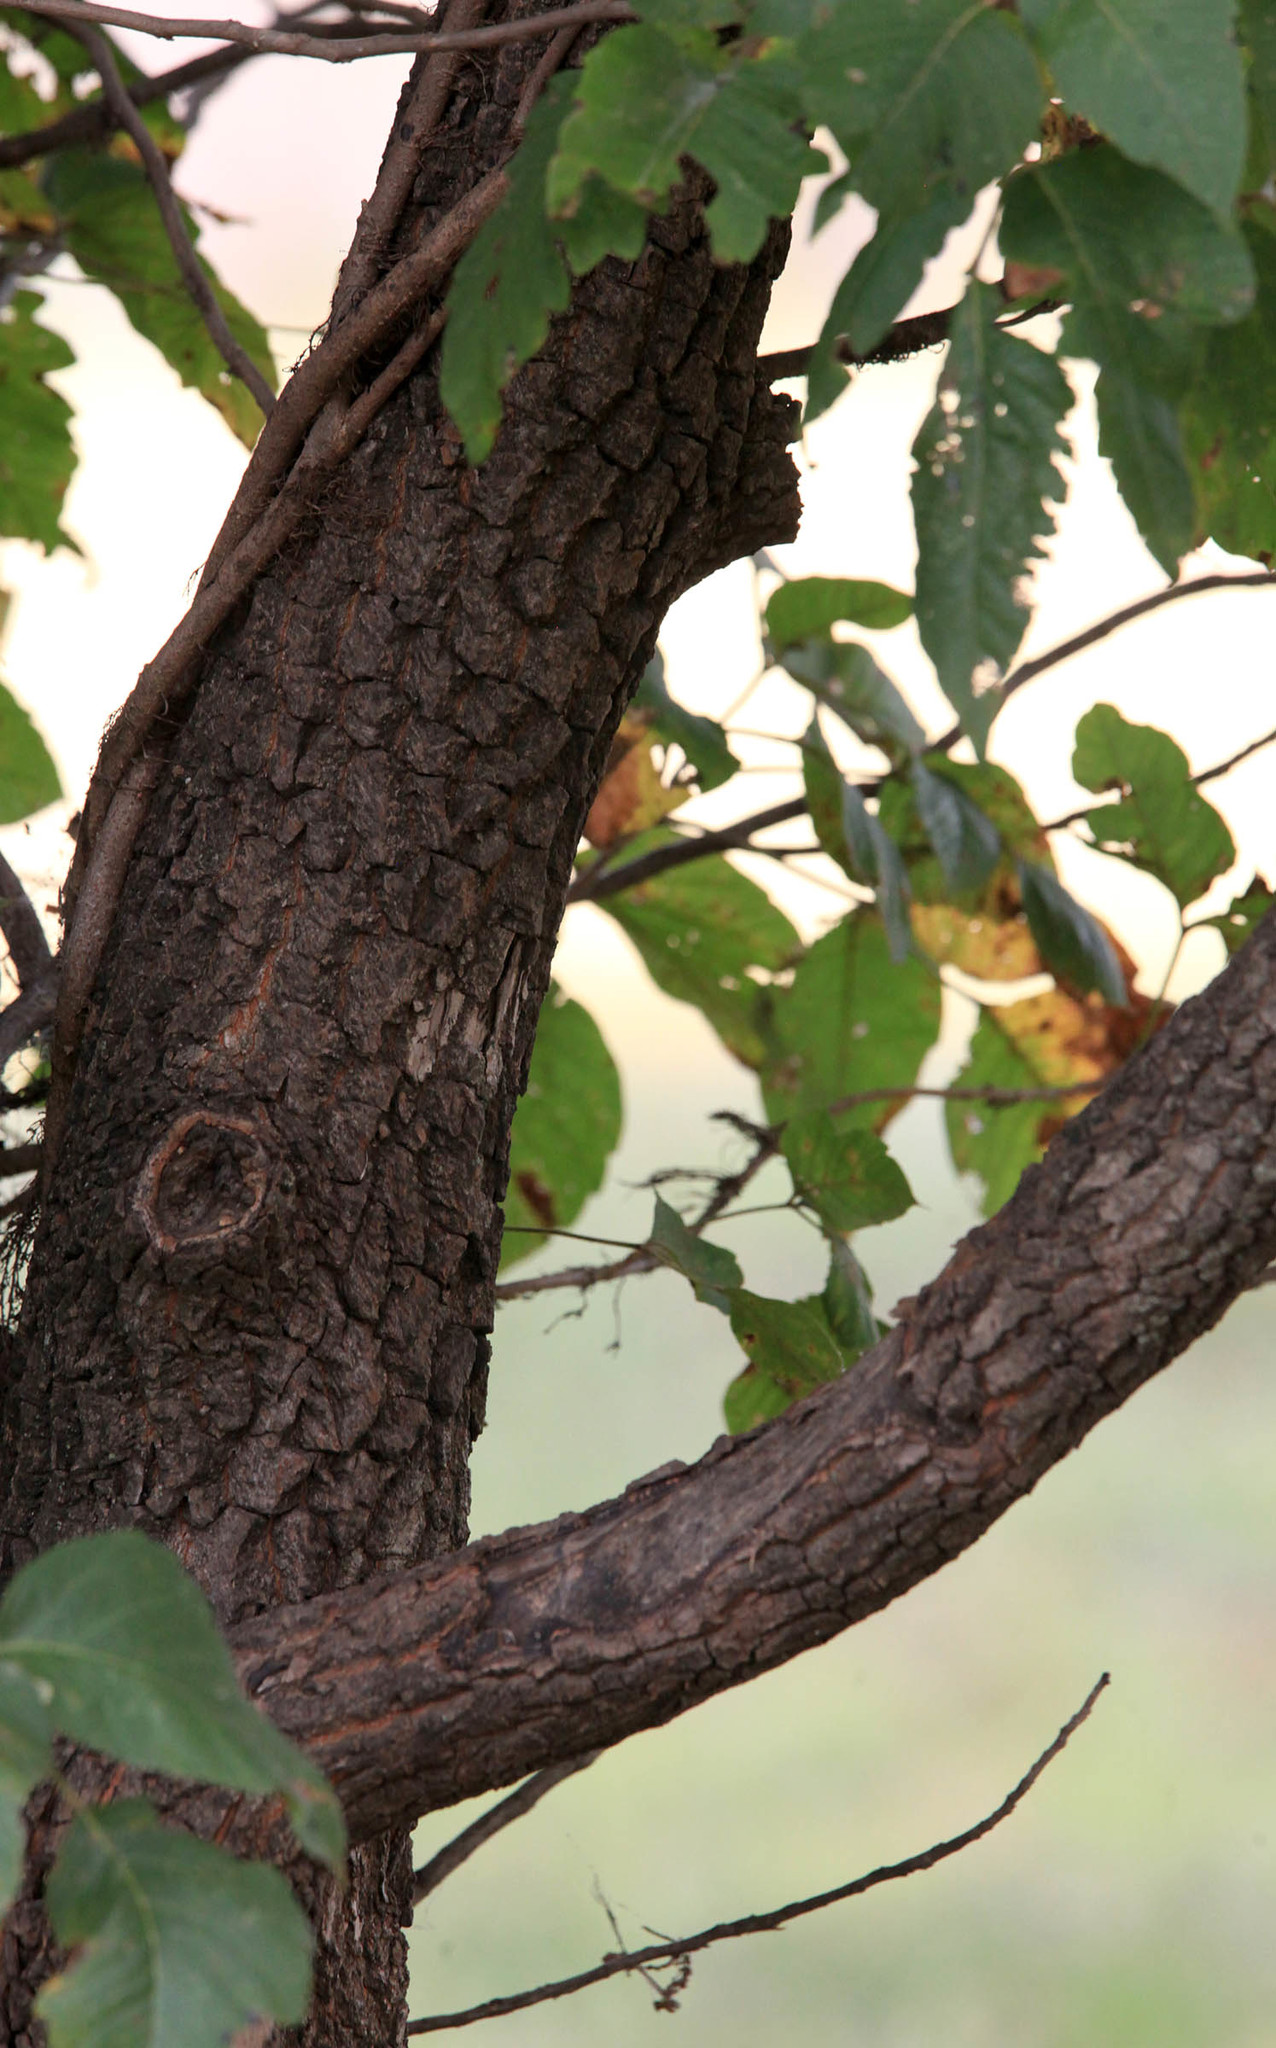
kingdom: Plantae
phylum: Tracheophyta
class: Magnoliopsida
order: Ericales
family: Ebenaceae
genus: Diospyros
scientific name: Diospyros virginiana
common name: Persimmon
